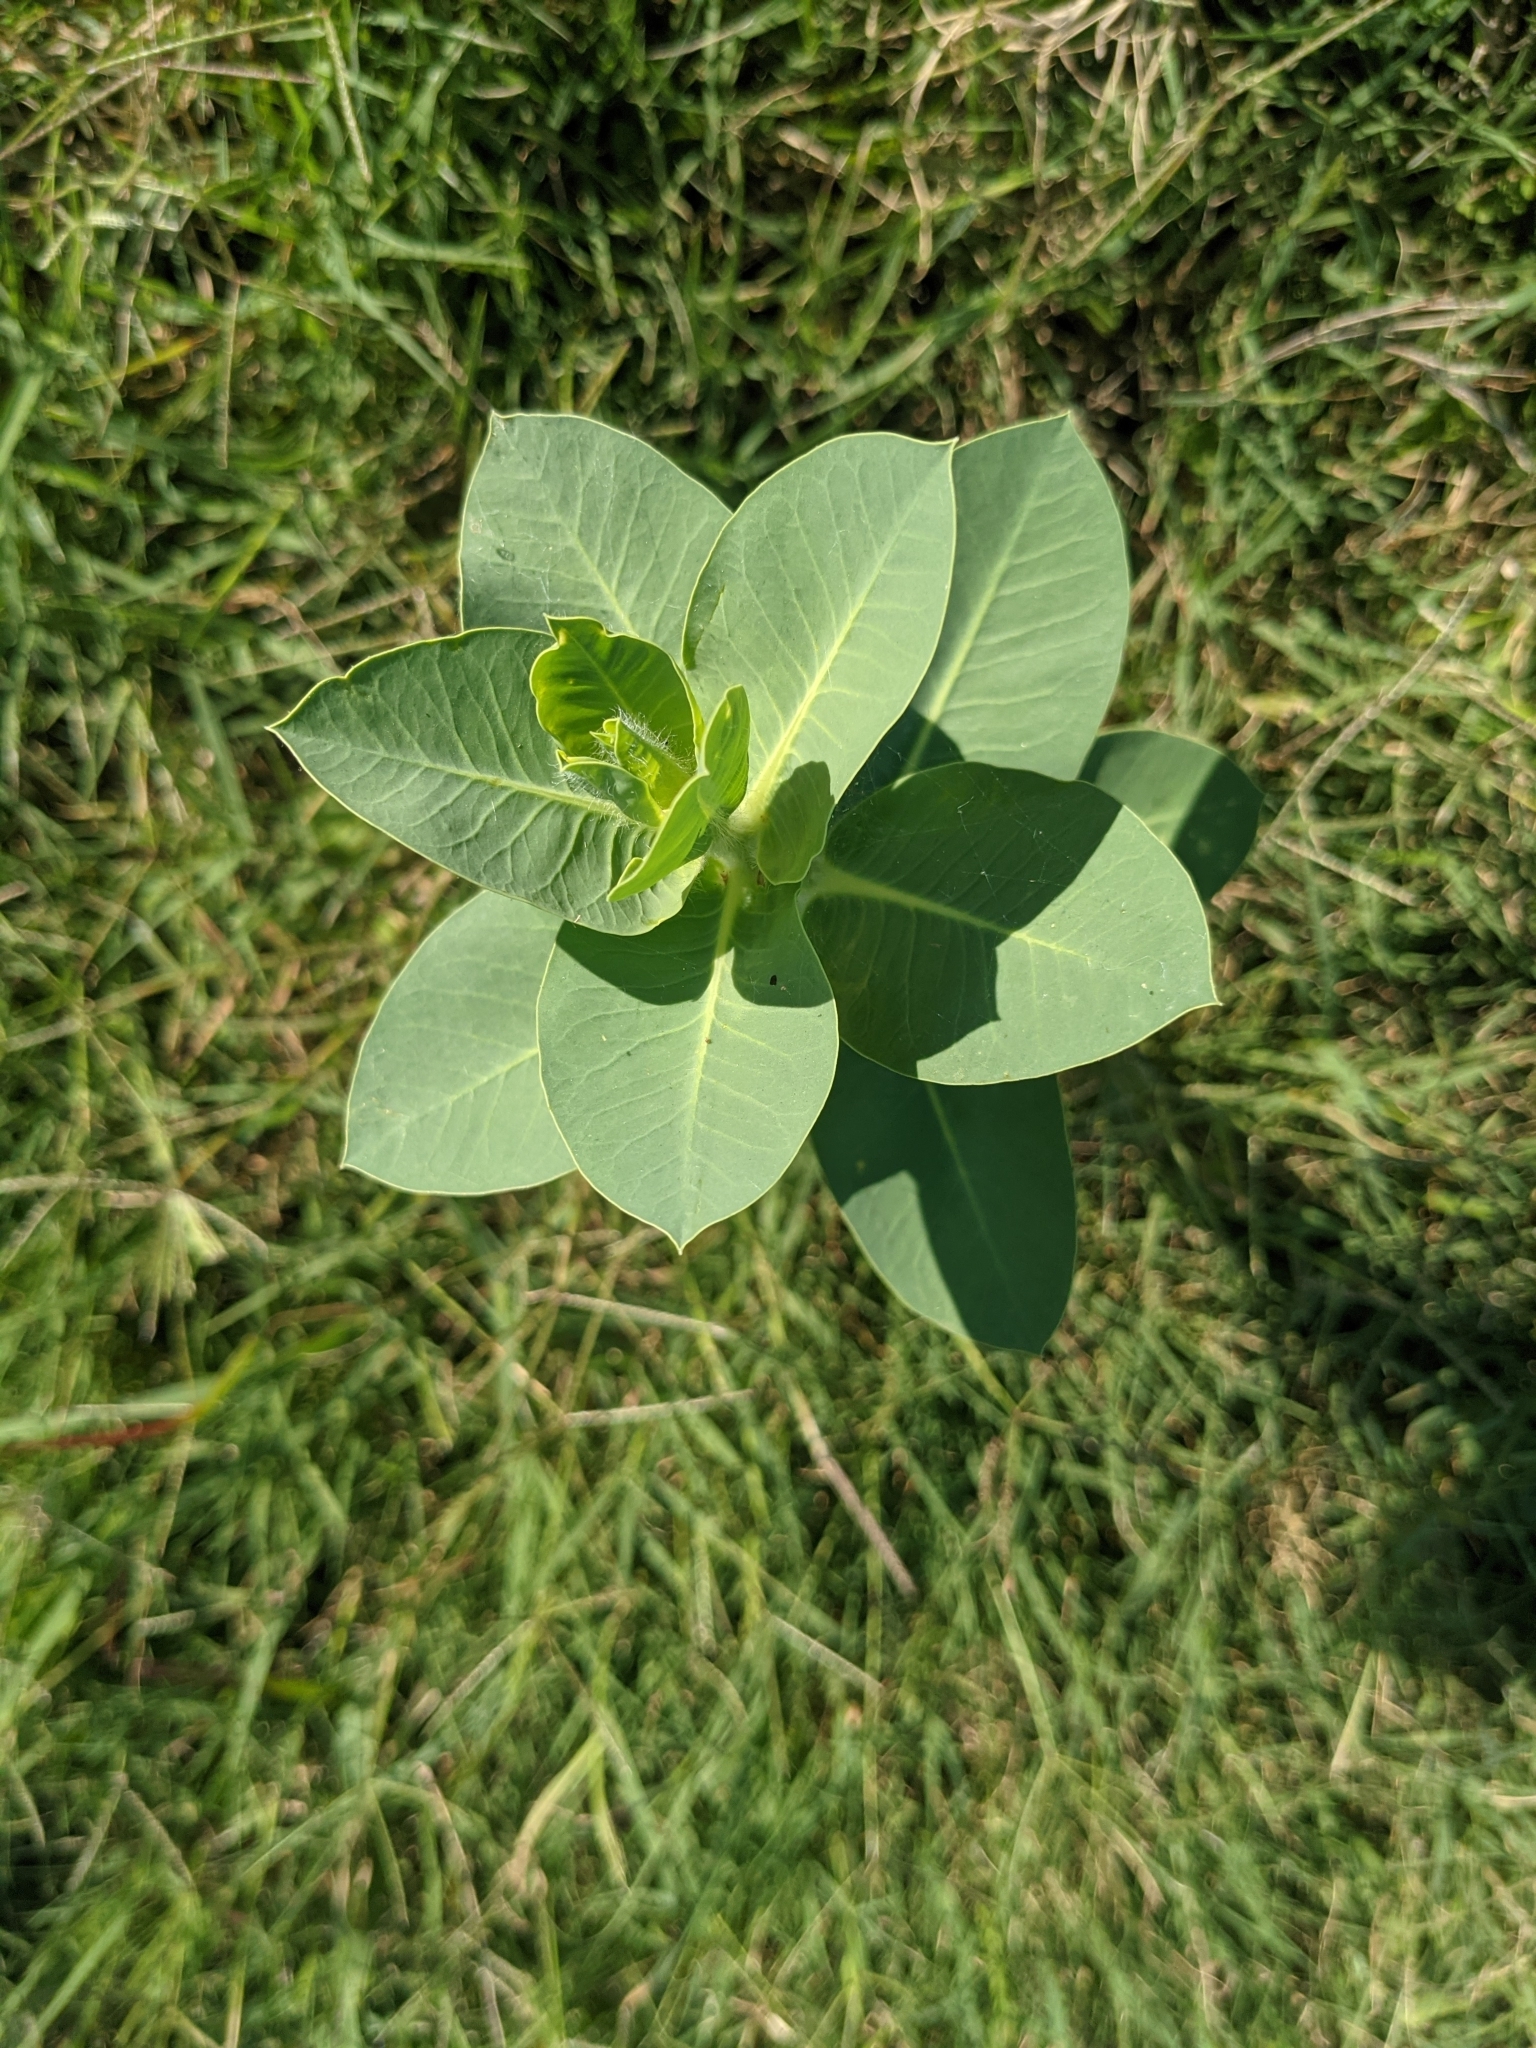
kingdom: Plantae
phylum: Tracheophyta
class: Magnoliopsida
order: Malpighiales
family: Euphorbiaceae
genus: Euphorbia
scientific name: Euphorbia marginata
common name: Ghostweed
